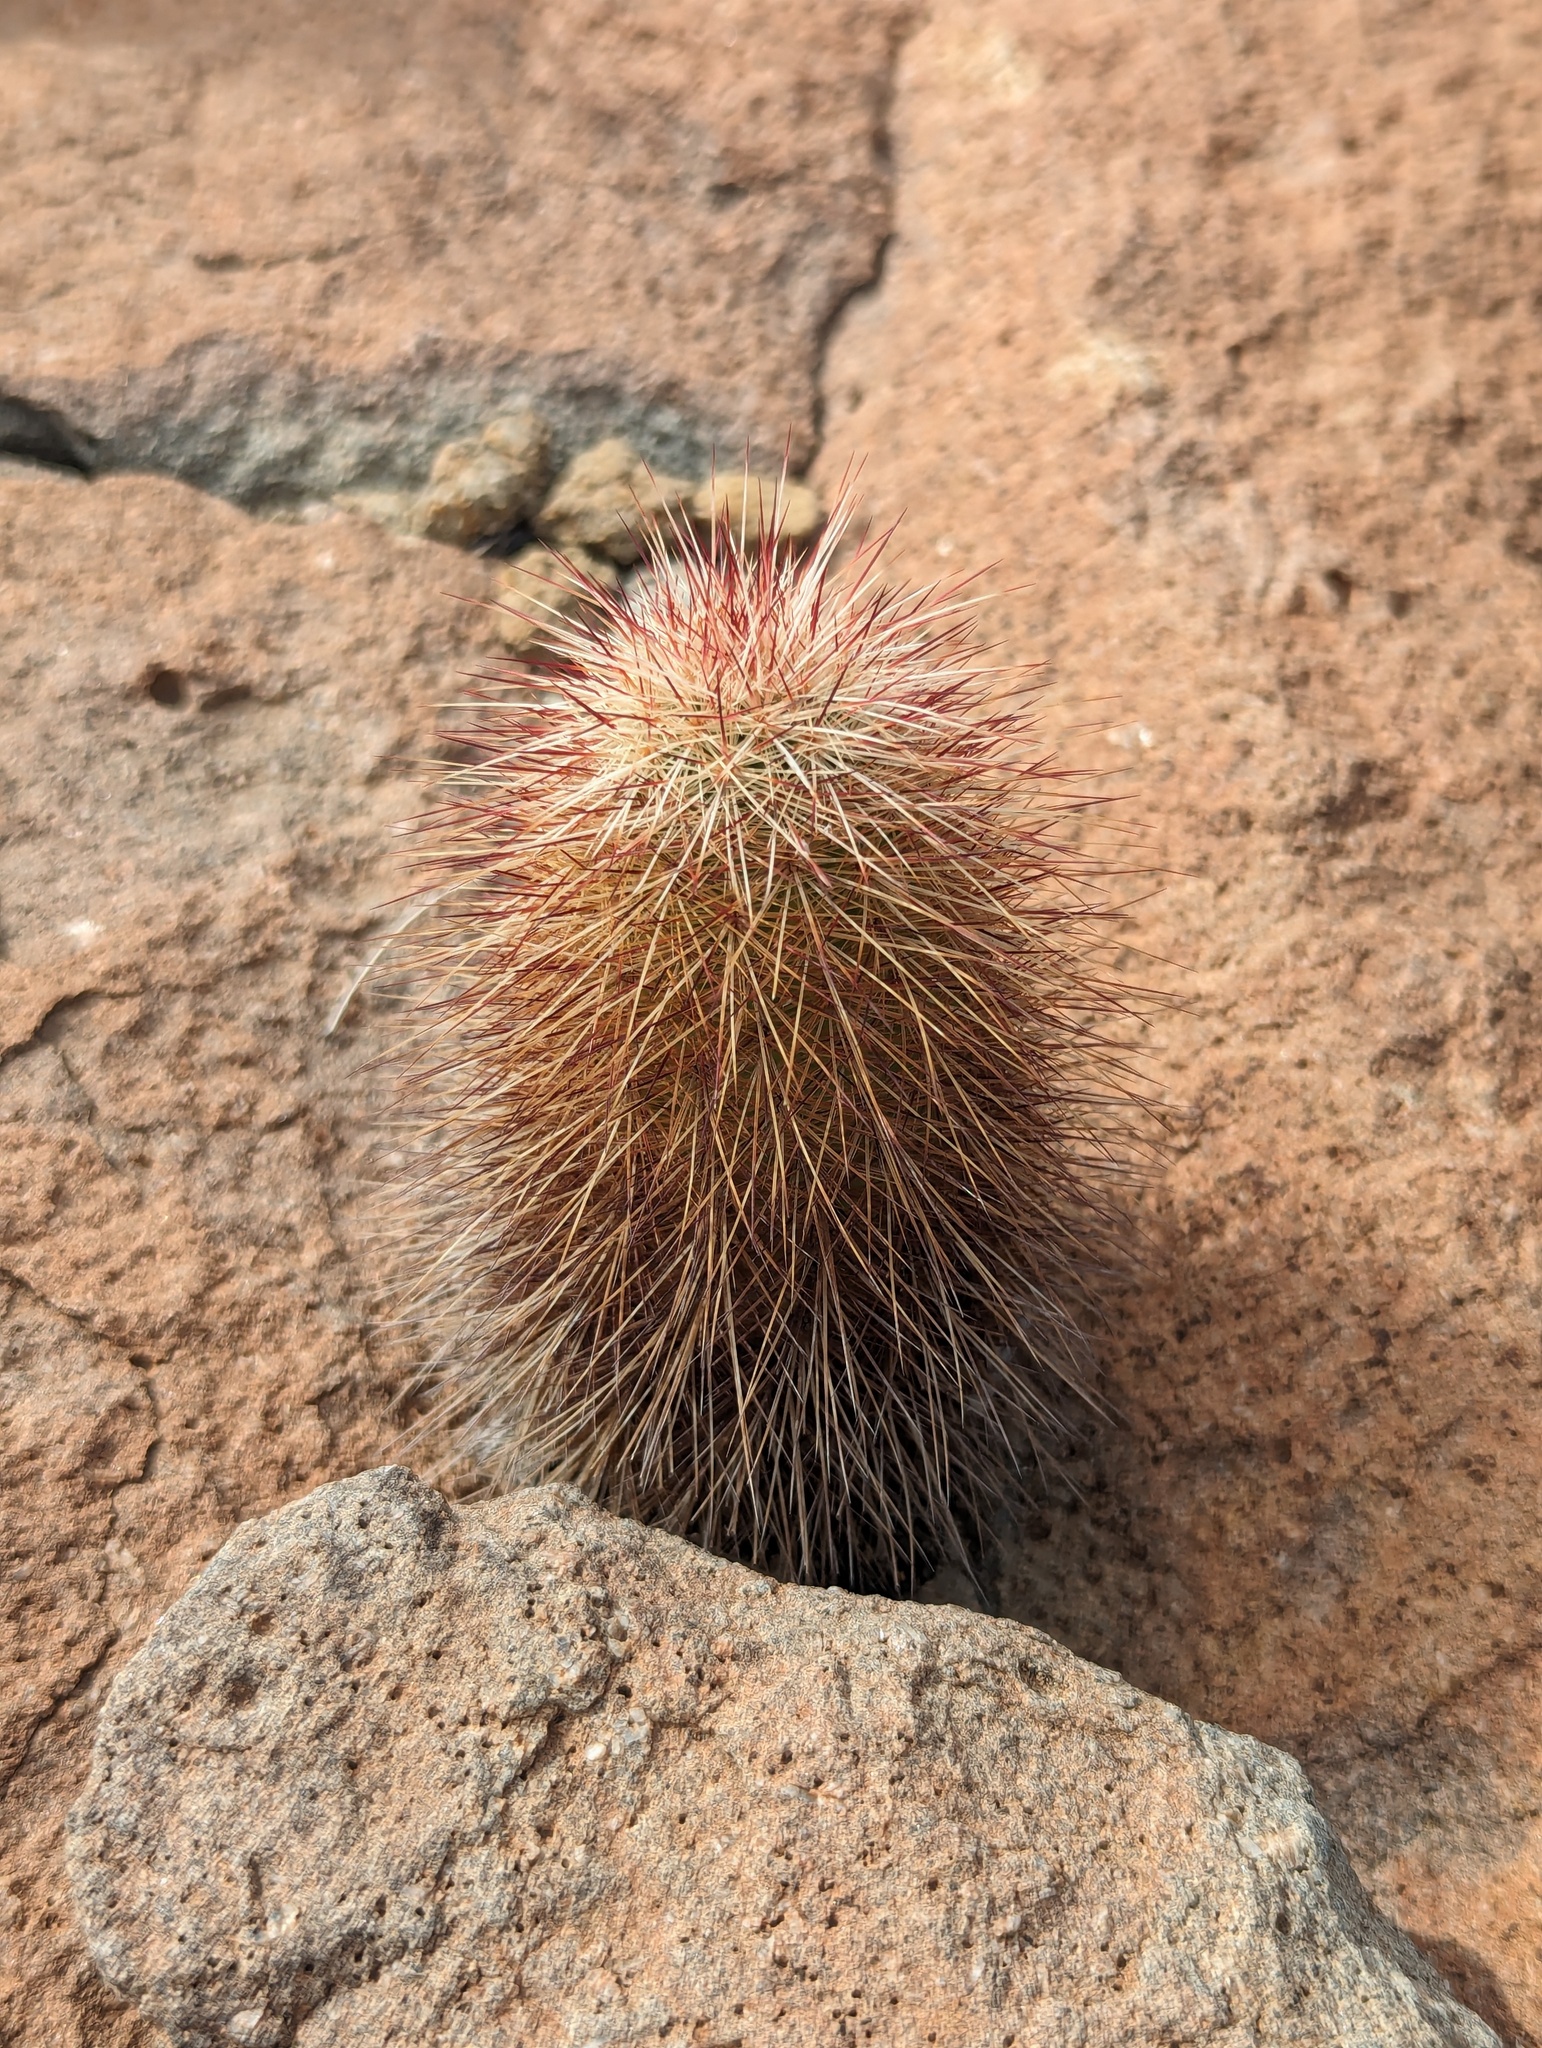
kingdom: Plantae
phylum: Tracheophyta
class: Magnoliopsida
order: Caryophyllales
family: Cactaceae
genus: Echinocereus
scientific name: Echinocereus russanthus
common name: Brownspine hedgehog cactus
